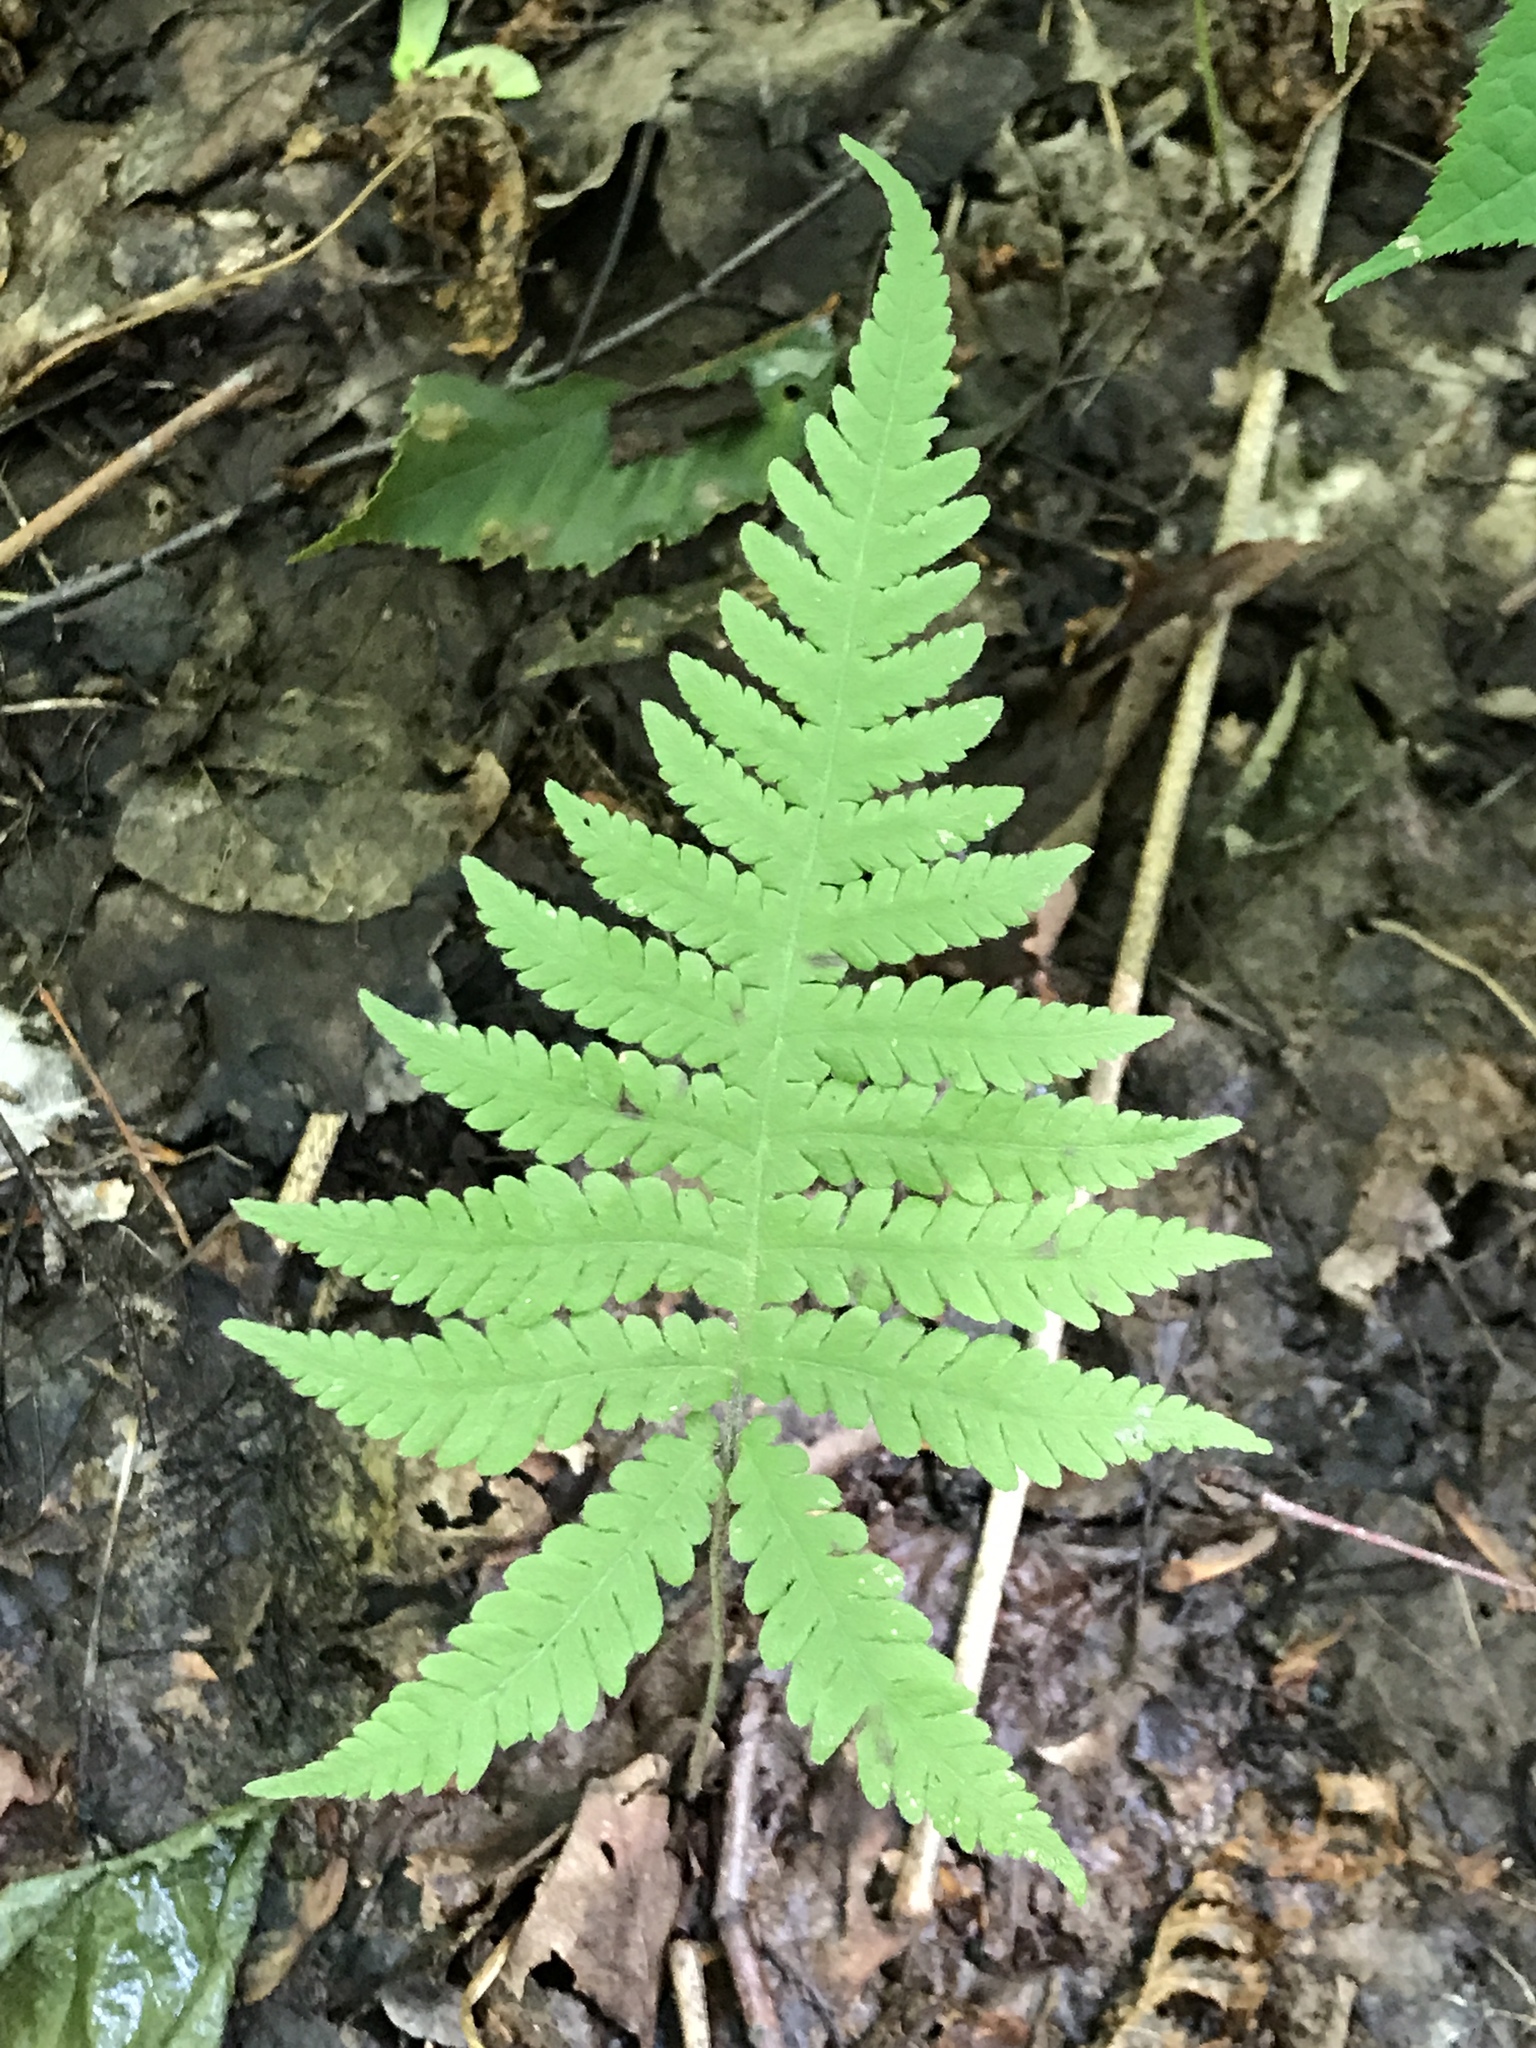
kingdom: Plantae
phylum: Tracheophyta
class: Polypodiopsida
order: Polypodiales
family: Thelypteridaceae
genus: Phegopteris
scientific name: Phegopteris connectilis
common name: Beech fern
